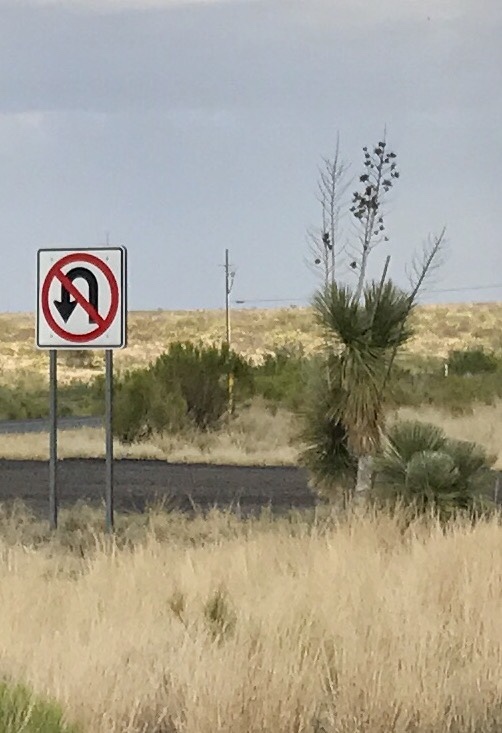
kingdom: Plantae
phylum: Tracheophyta
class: Liliopsida
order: Asparagales
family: Asparagaceae
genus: Yucca
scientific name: Yucca elata
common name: Palmella
